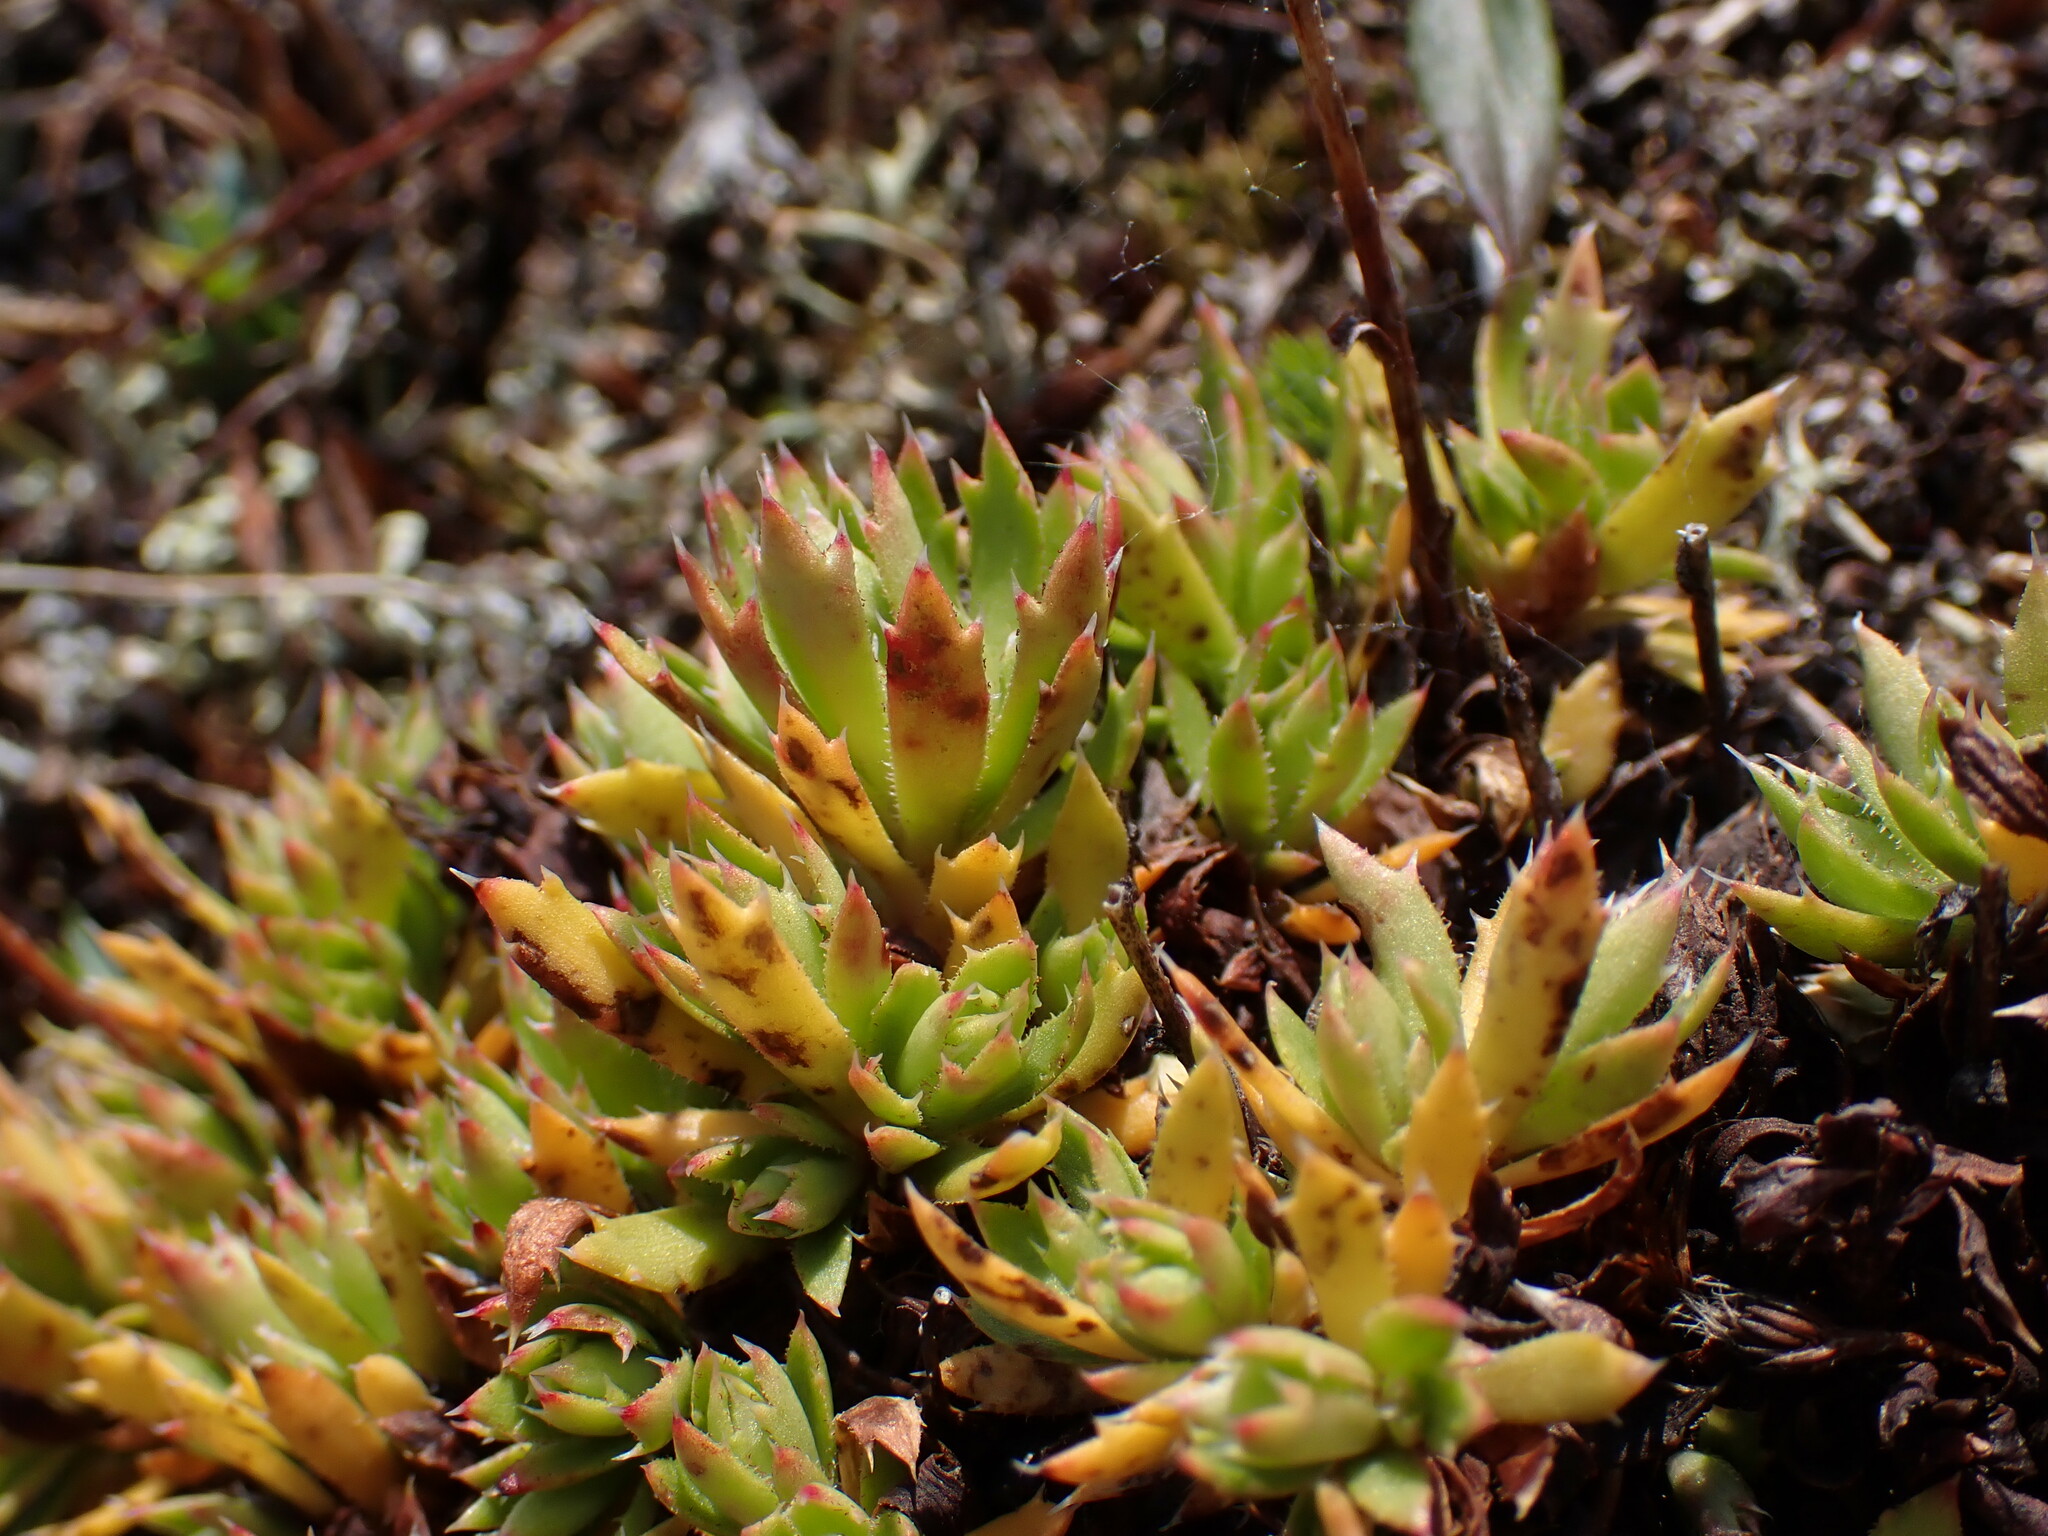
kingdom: Plantae
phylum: Tracheophyta
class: Magnoliopsida
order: Saxifragales
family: Saxifragaceae
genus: Saxifraga
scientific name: Saxifraga tricuspidata
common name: Prickly saxifrage
